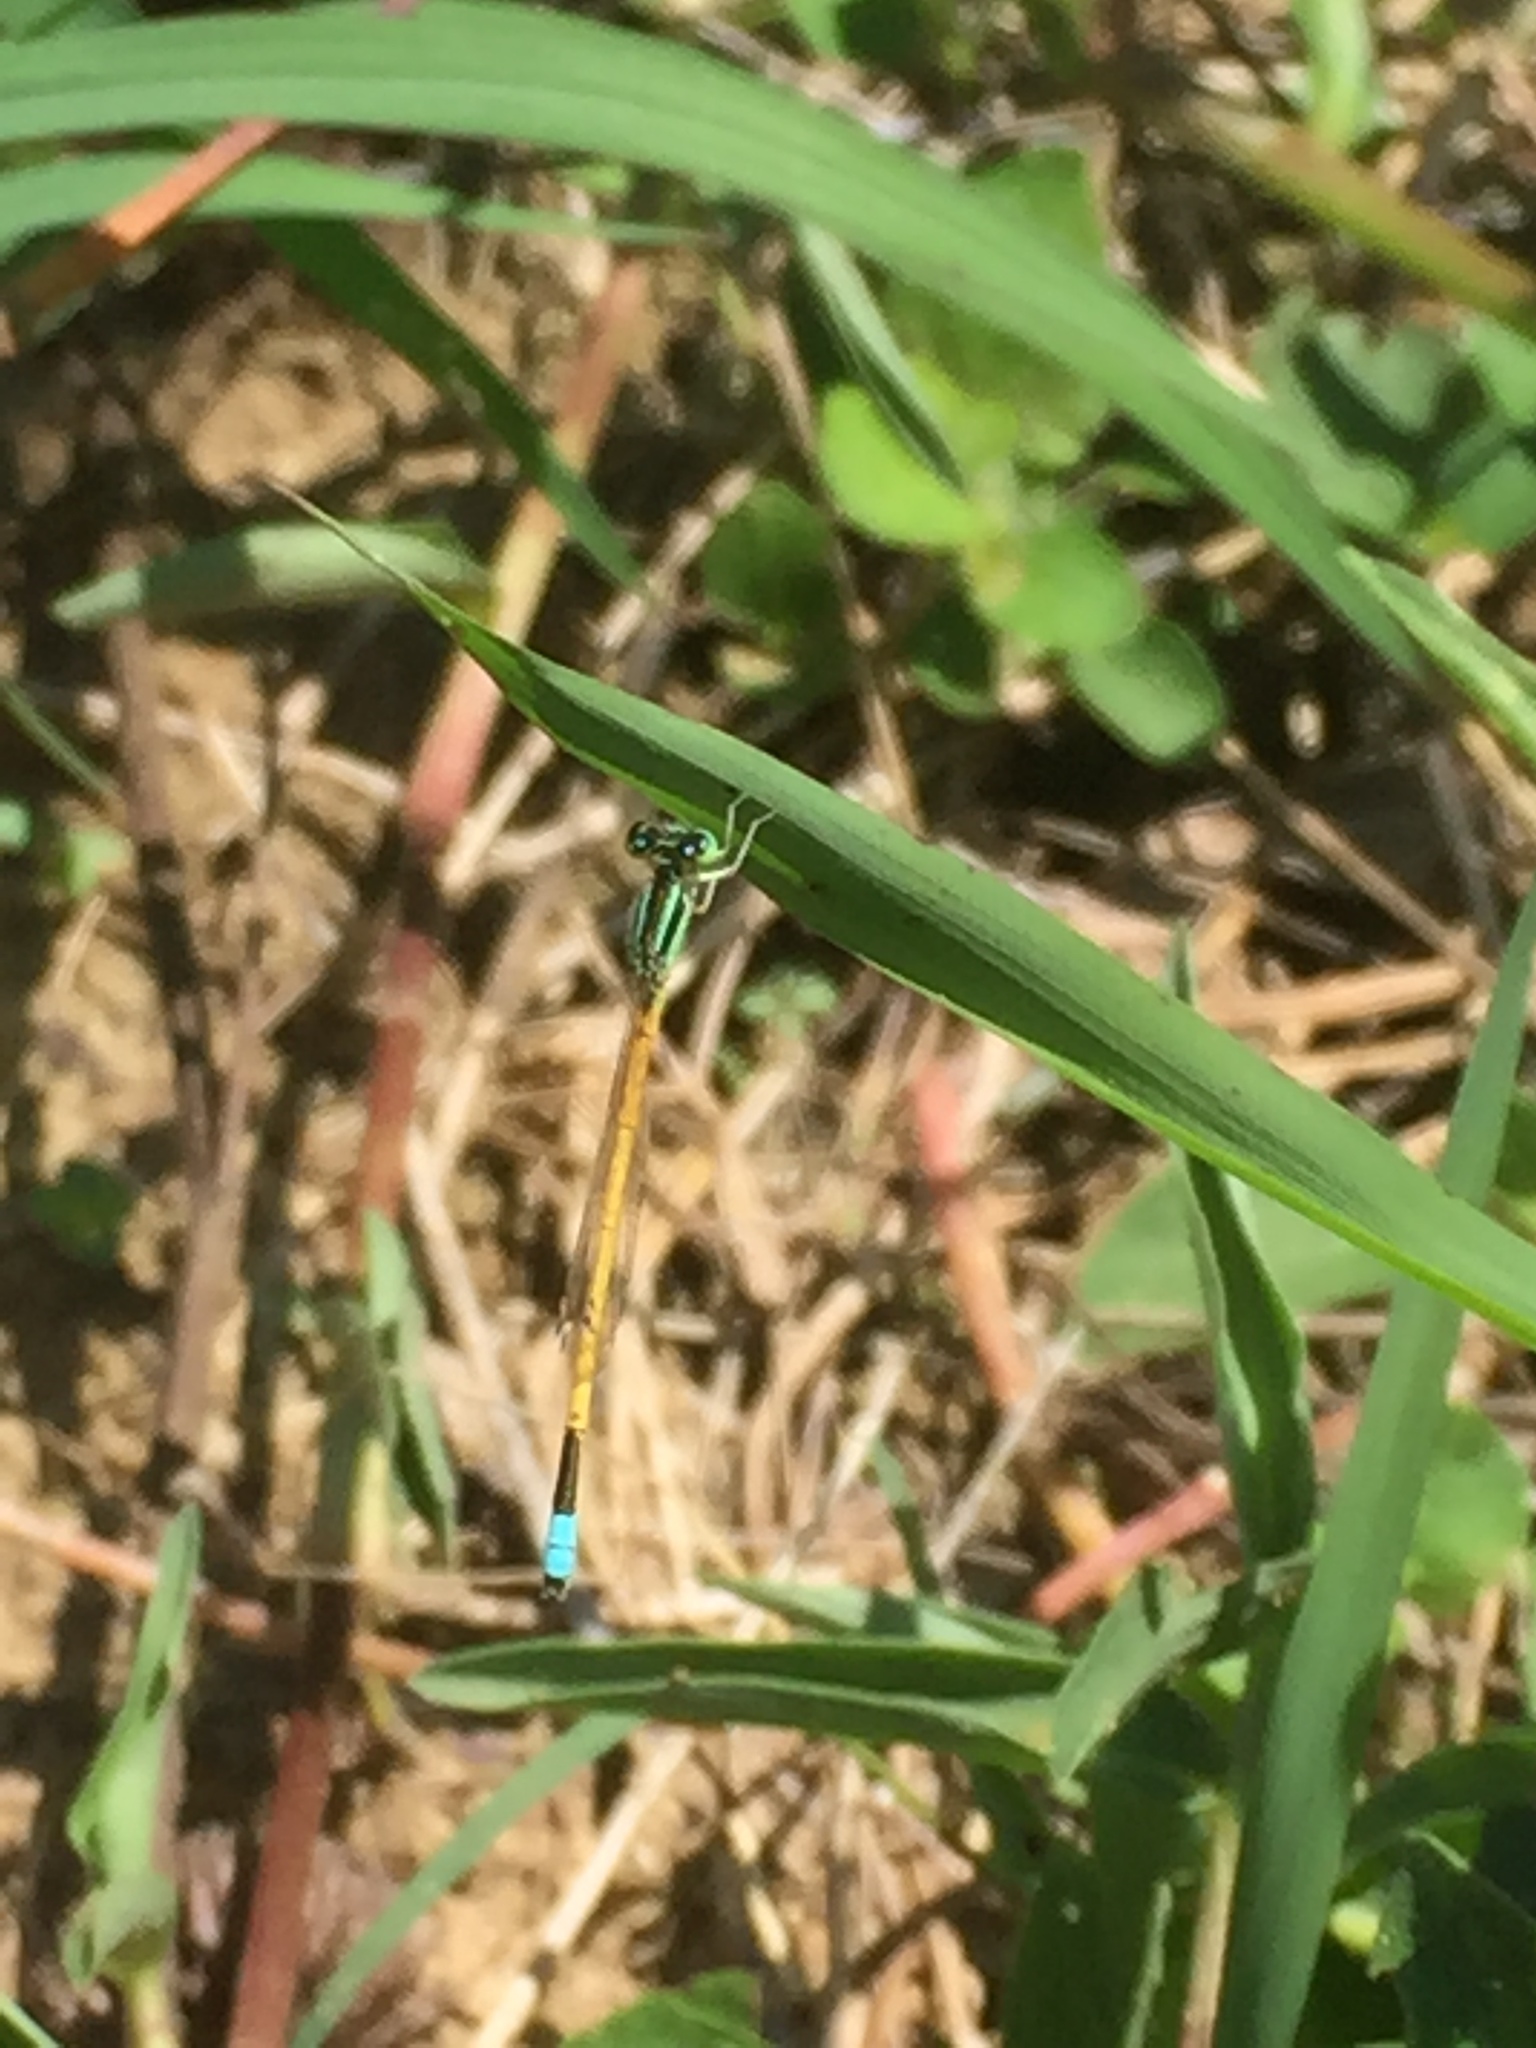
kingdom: Animalia
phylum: Arthropoda
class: Insecta
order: Odonata
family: Coenagrionidae
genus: Ischnura
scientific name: Ischnura rubilio
